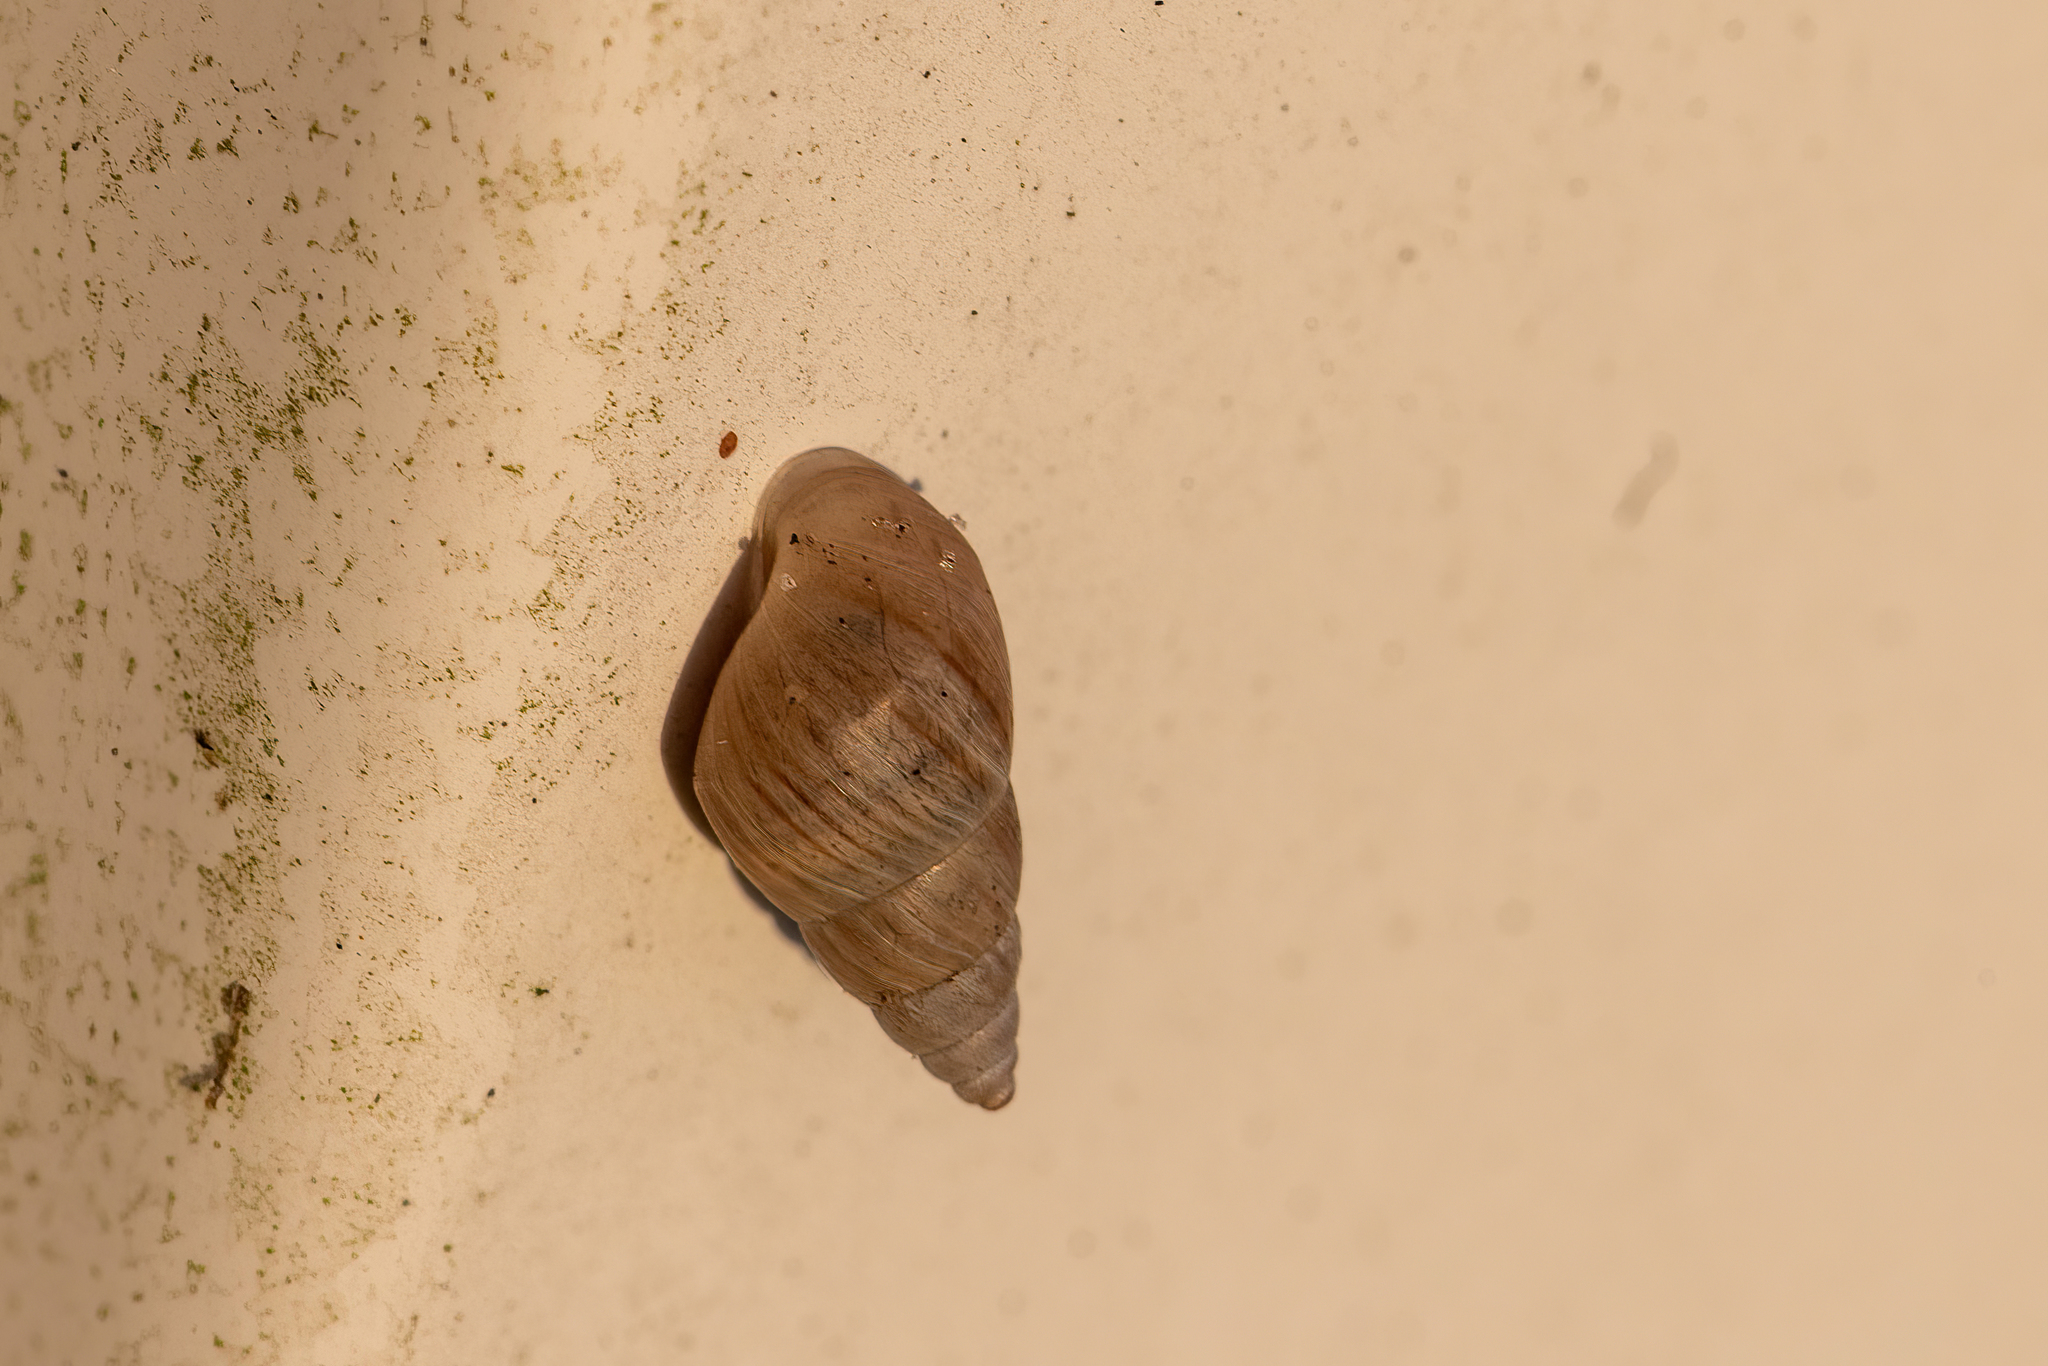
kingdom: Animalia
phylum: Mollusca
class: Gastropoda
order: Stylommatophora
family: Bulimulidae
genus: Bulimulus
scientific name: Bulimulus bonariensis
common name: Snail
